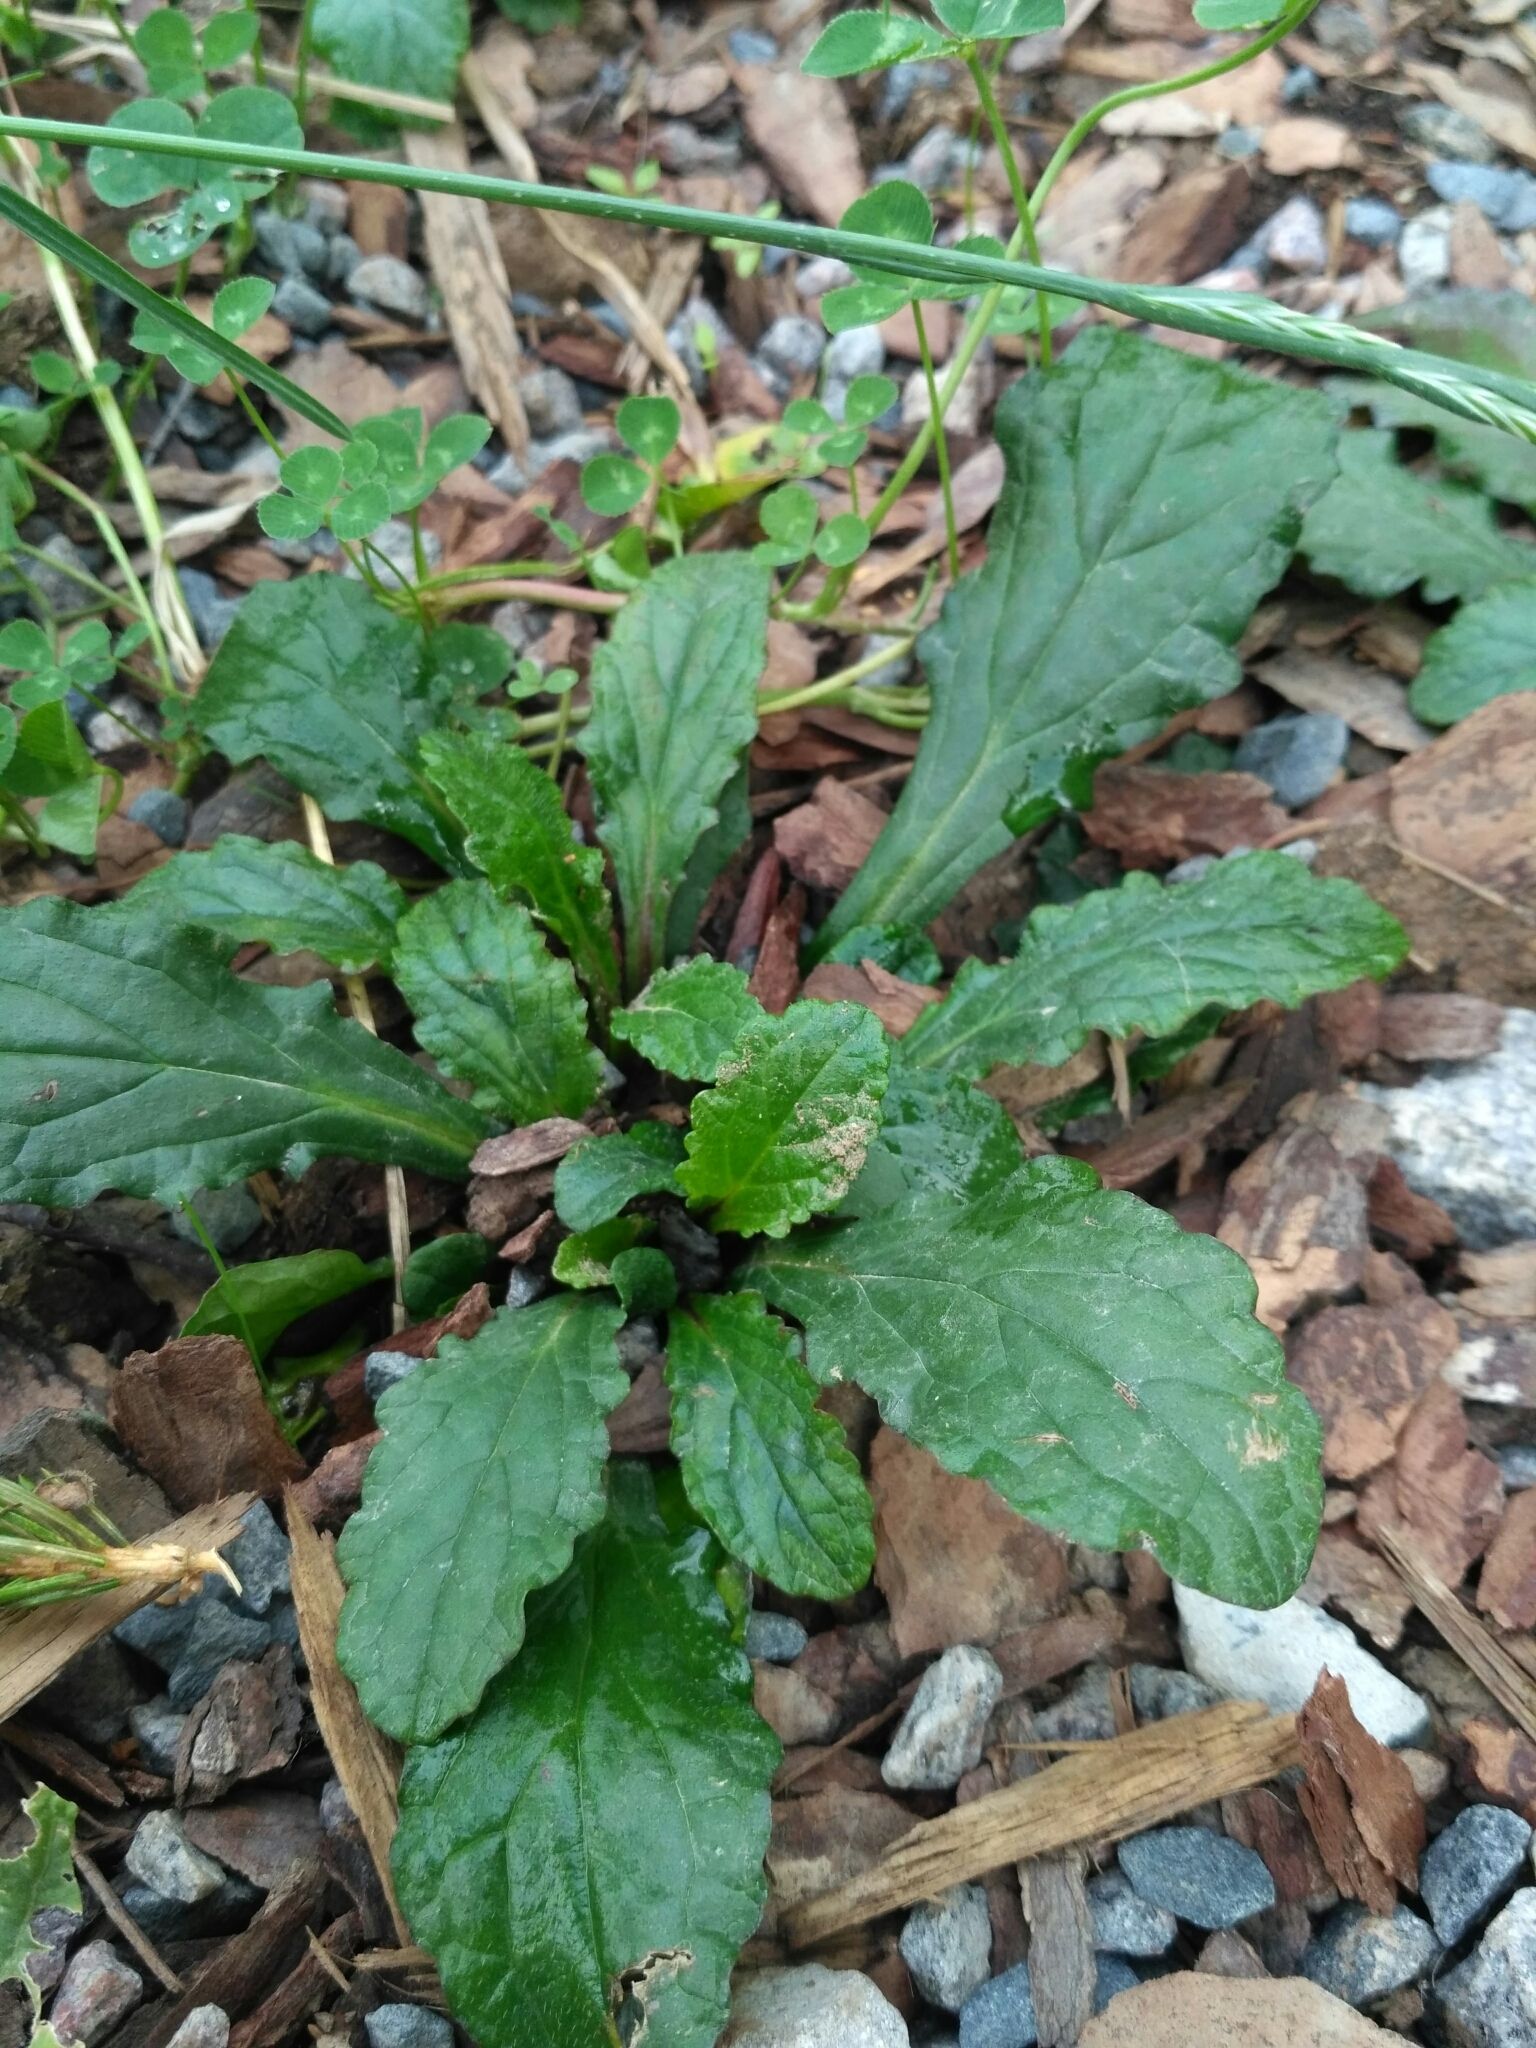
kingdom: Plantae
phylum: Tracheophyta
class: Magnoliopsida
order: Lamiales
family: Lamiaceae
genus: Ajuga
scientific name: Ajuga reptans
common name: Bugle
